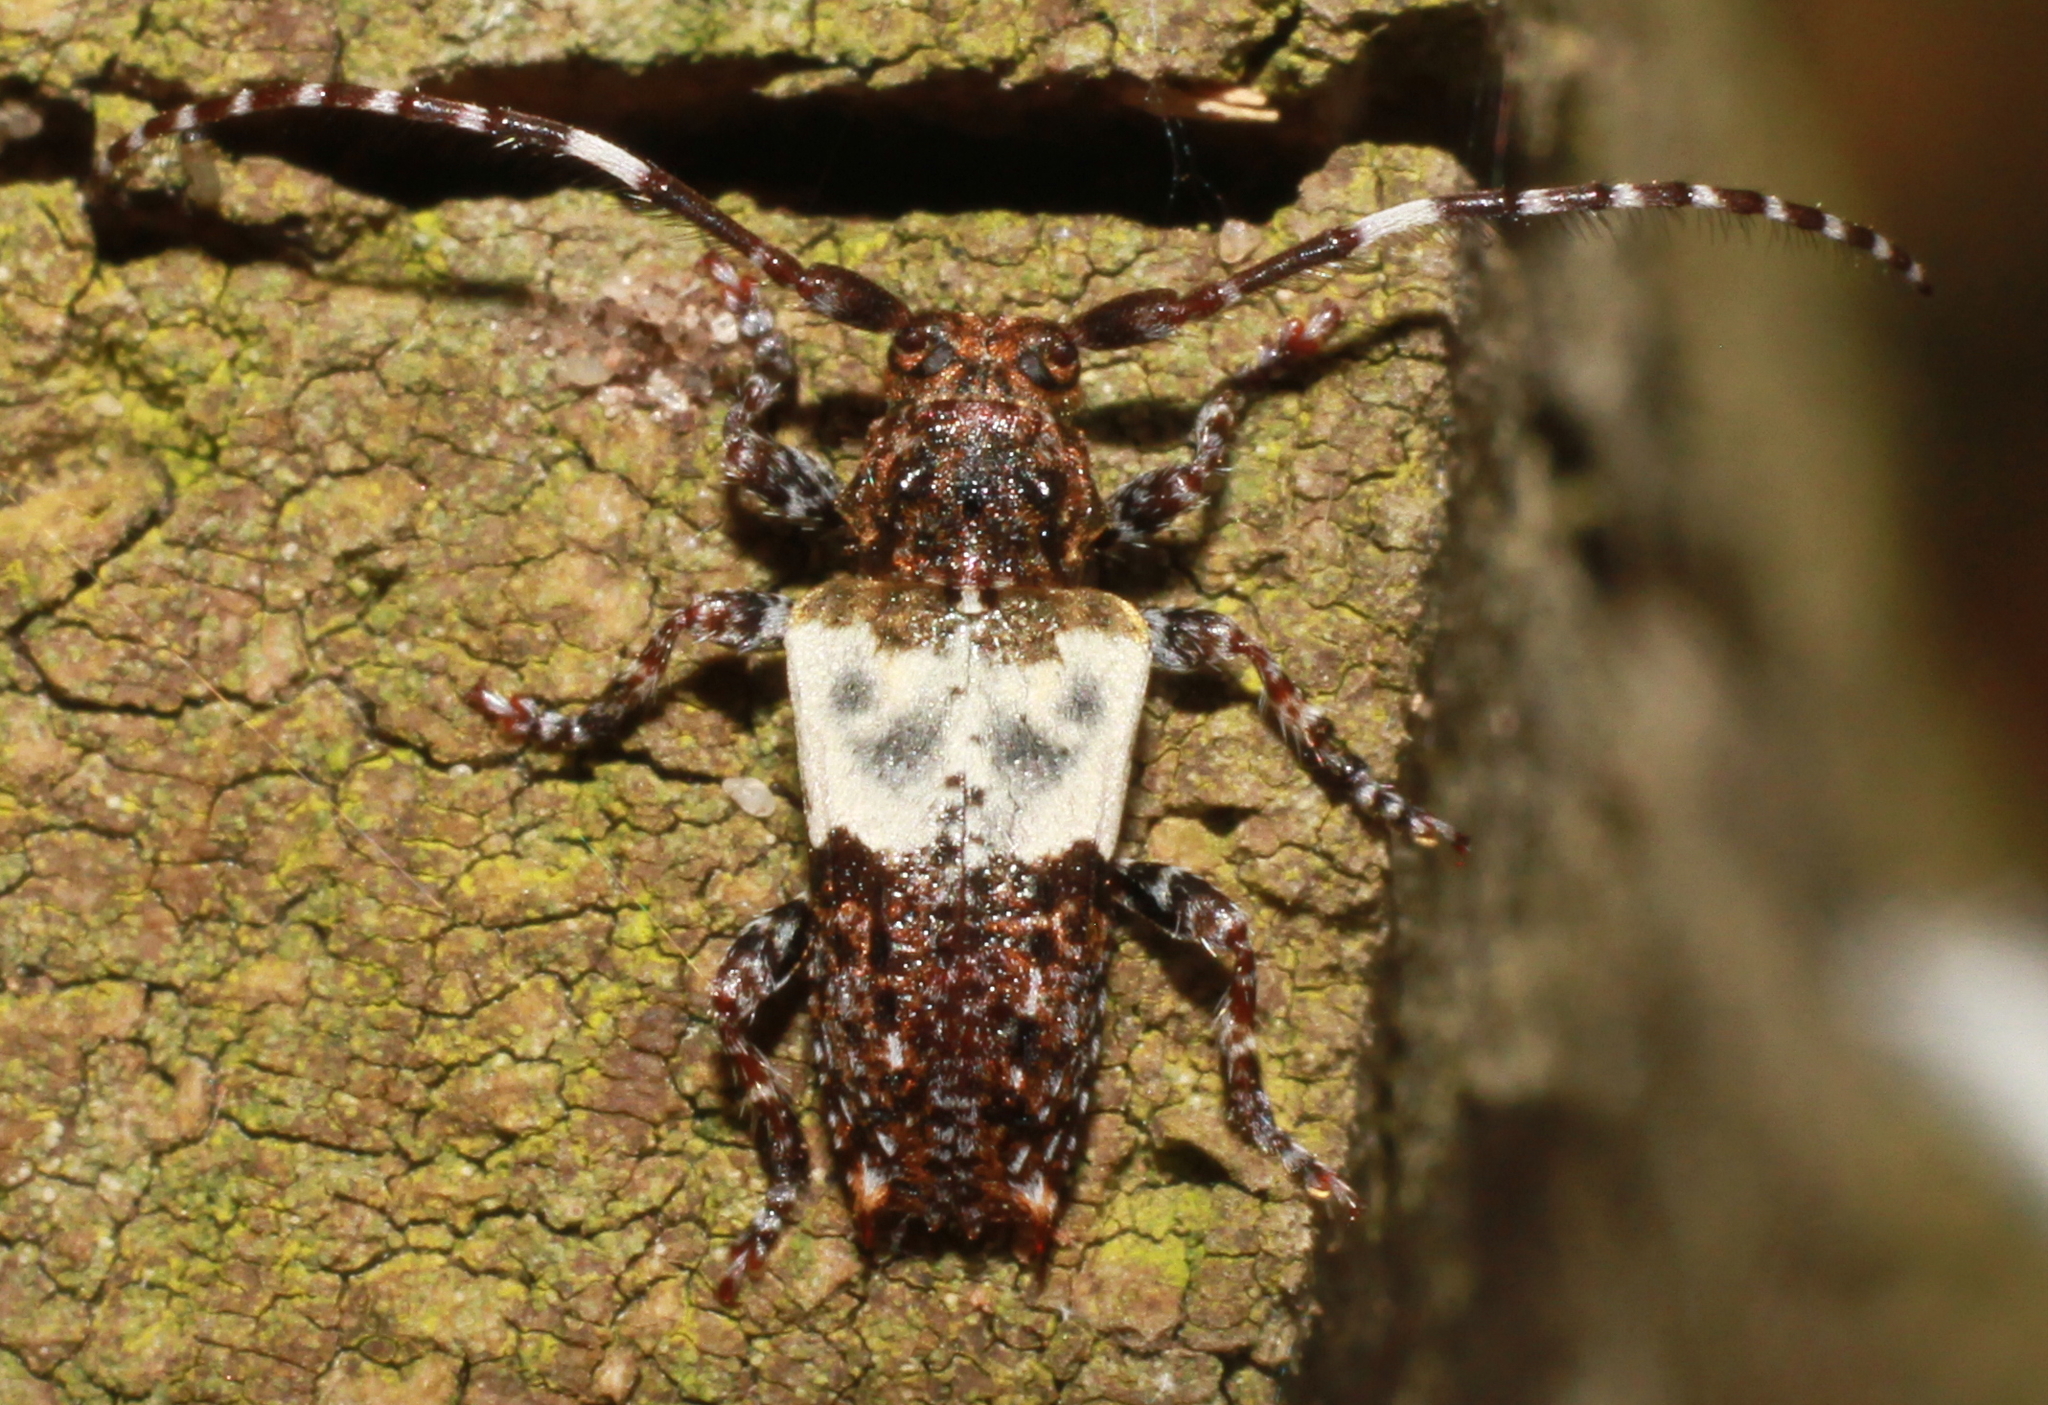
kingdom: Animalia
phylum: Arthropoda
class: Insecta
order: Coleoptera
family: Cerambycidae
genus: Pogonocherus
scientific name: Pogonocherus hispidulus
